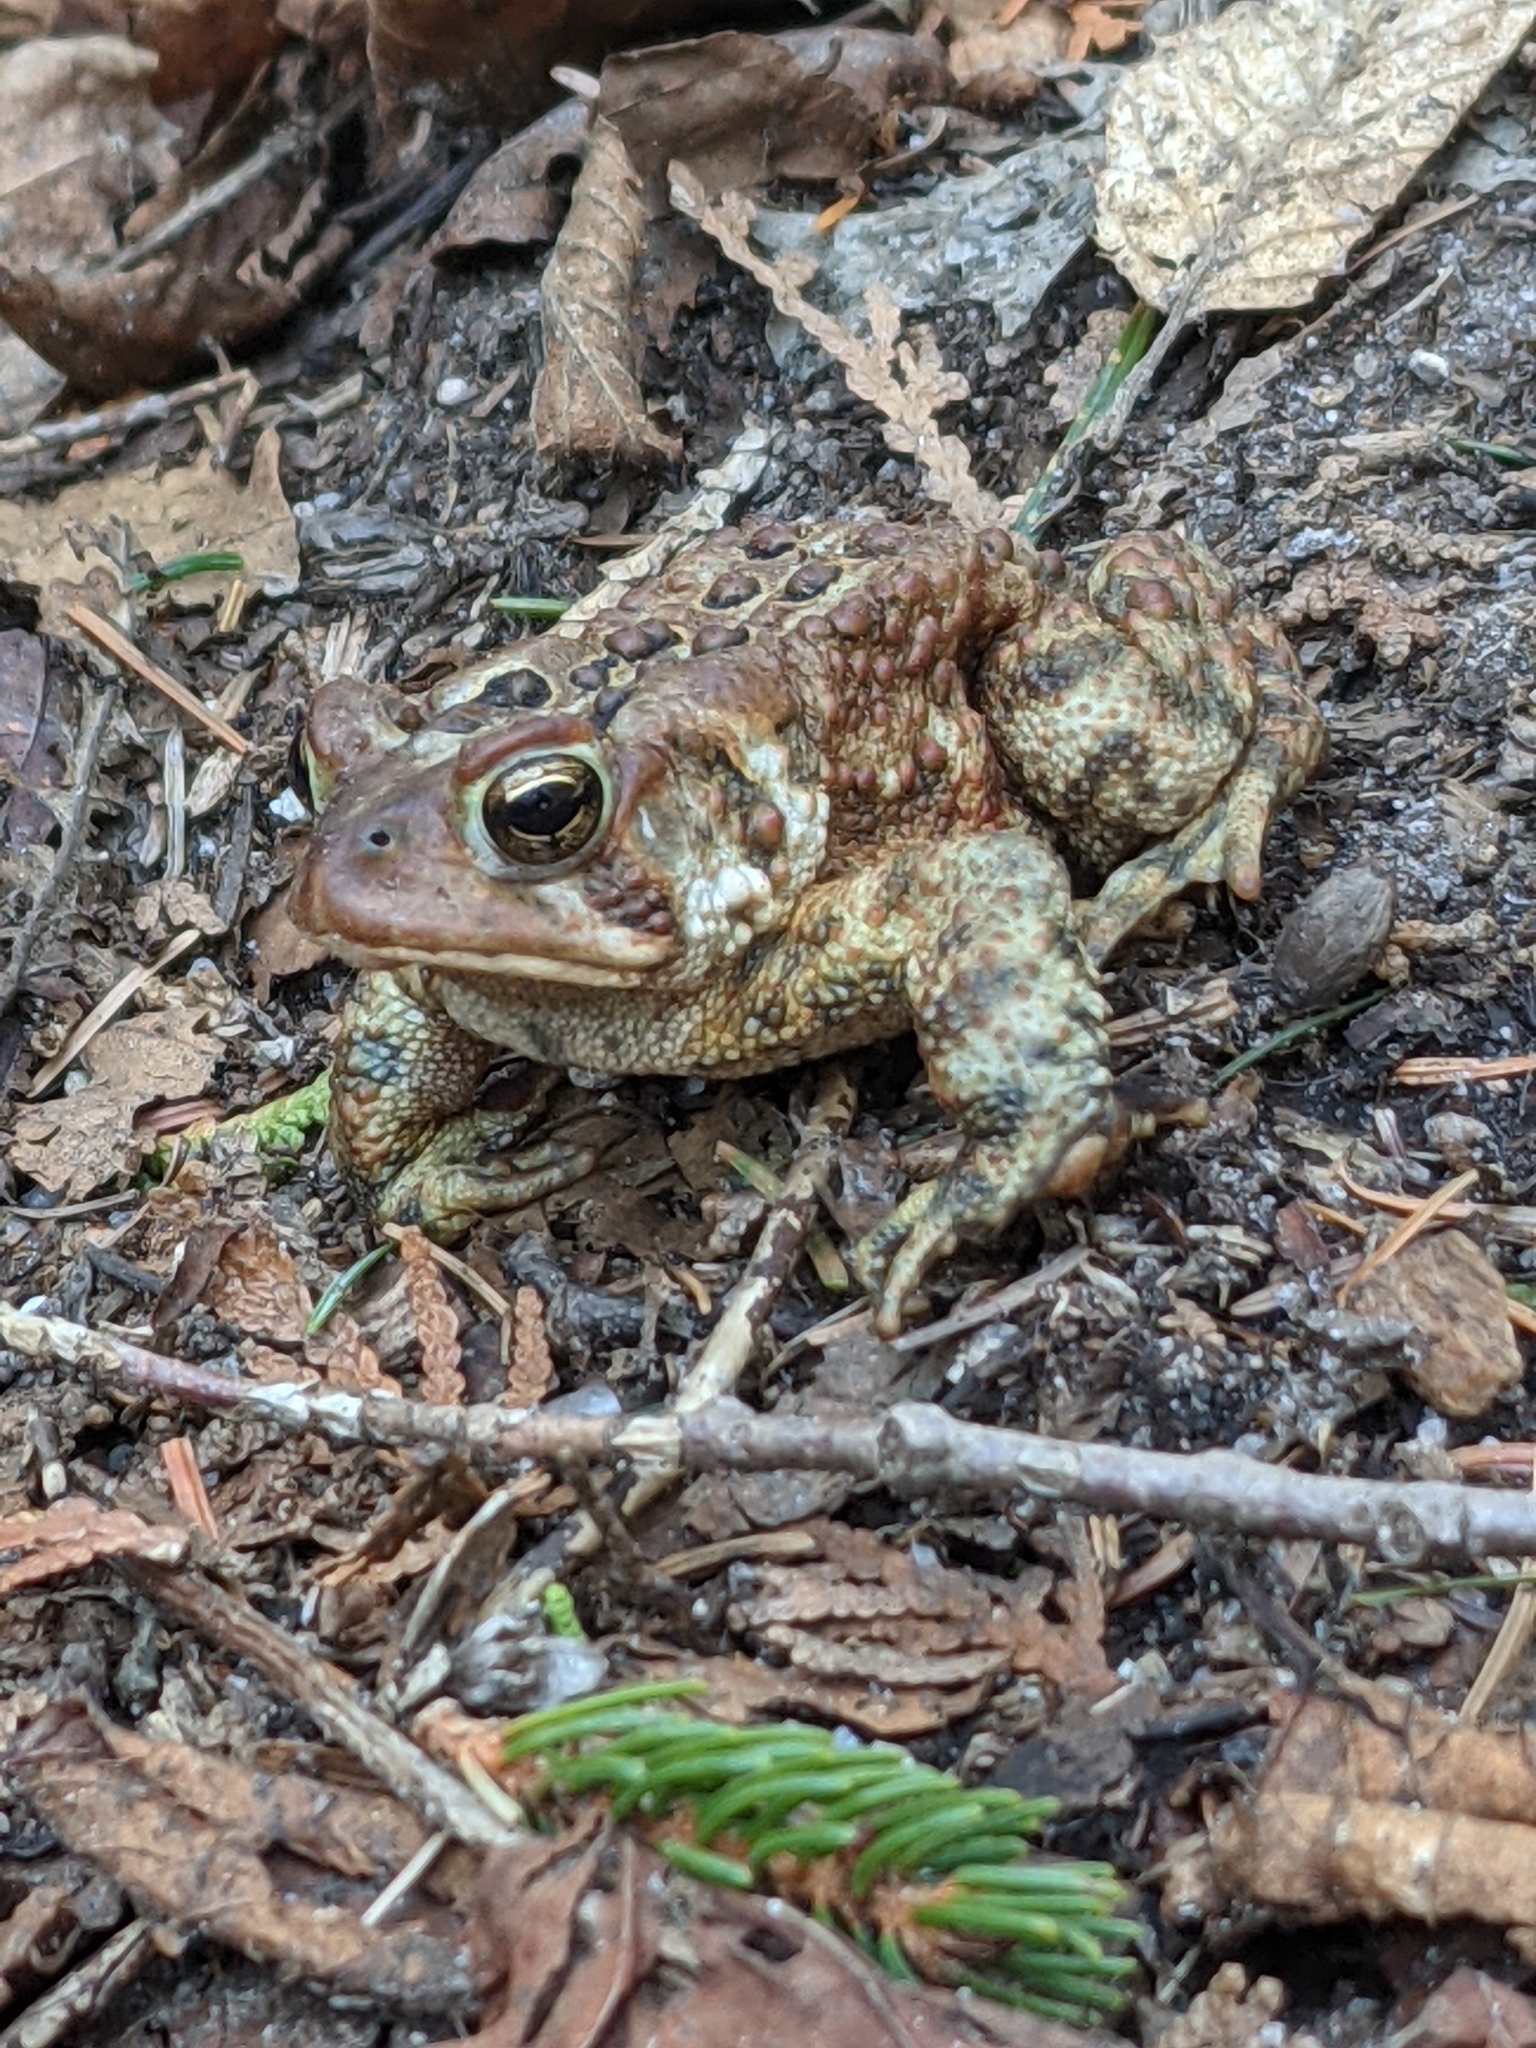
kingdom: Animalia
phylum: Chordata
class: Amphibia
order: Anura
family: Bufonidae
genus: Anaxyrus
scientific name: Anaxyrus americanus
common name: American toad
